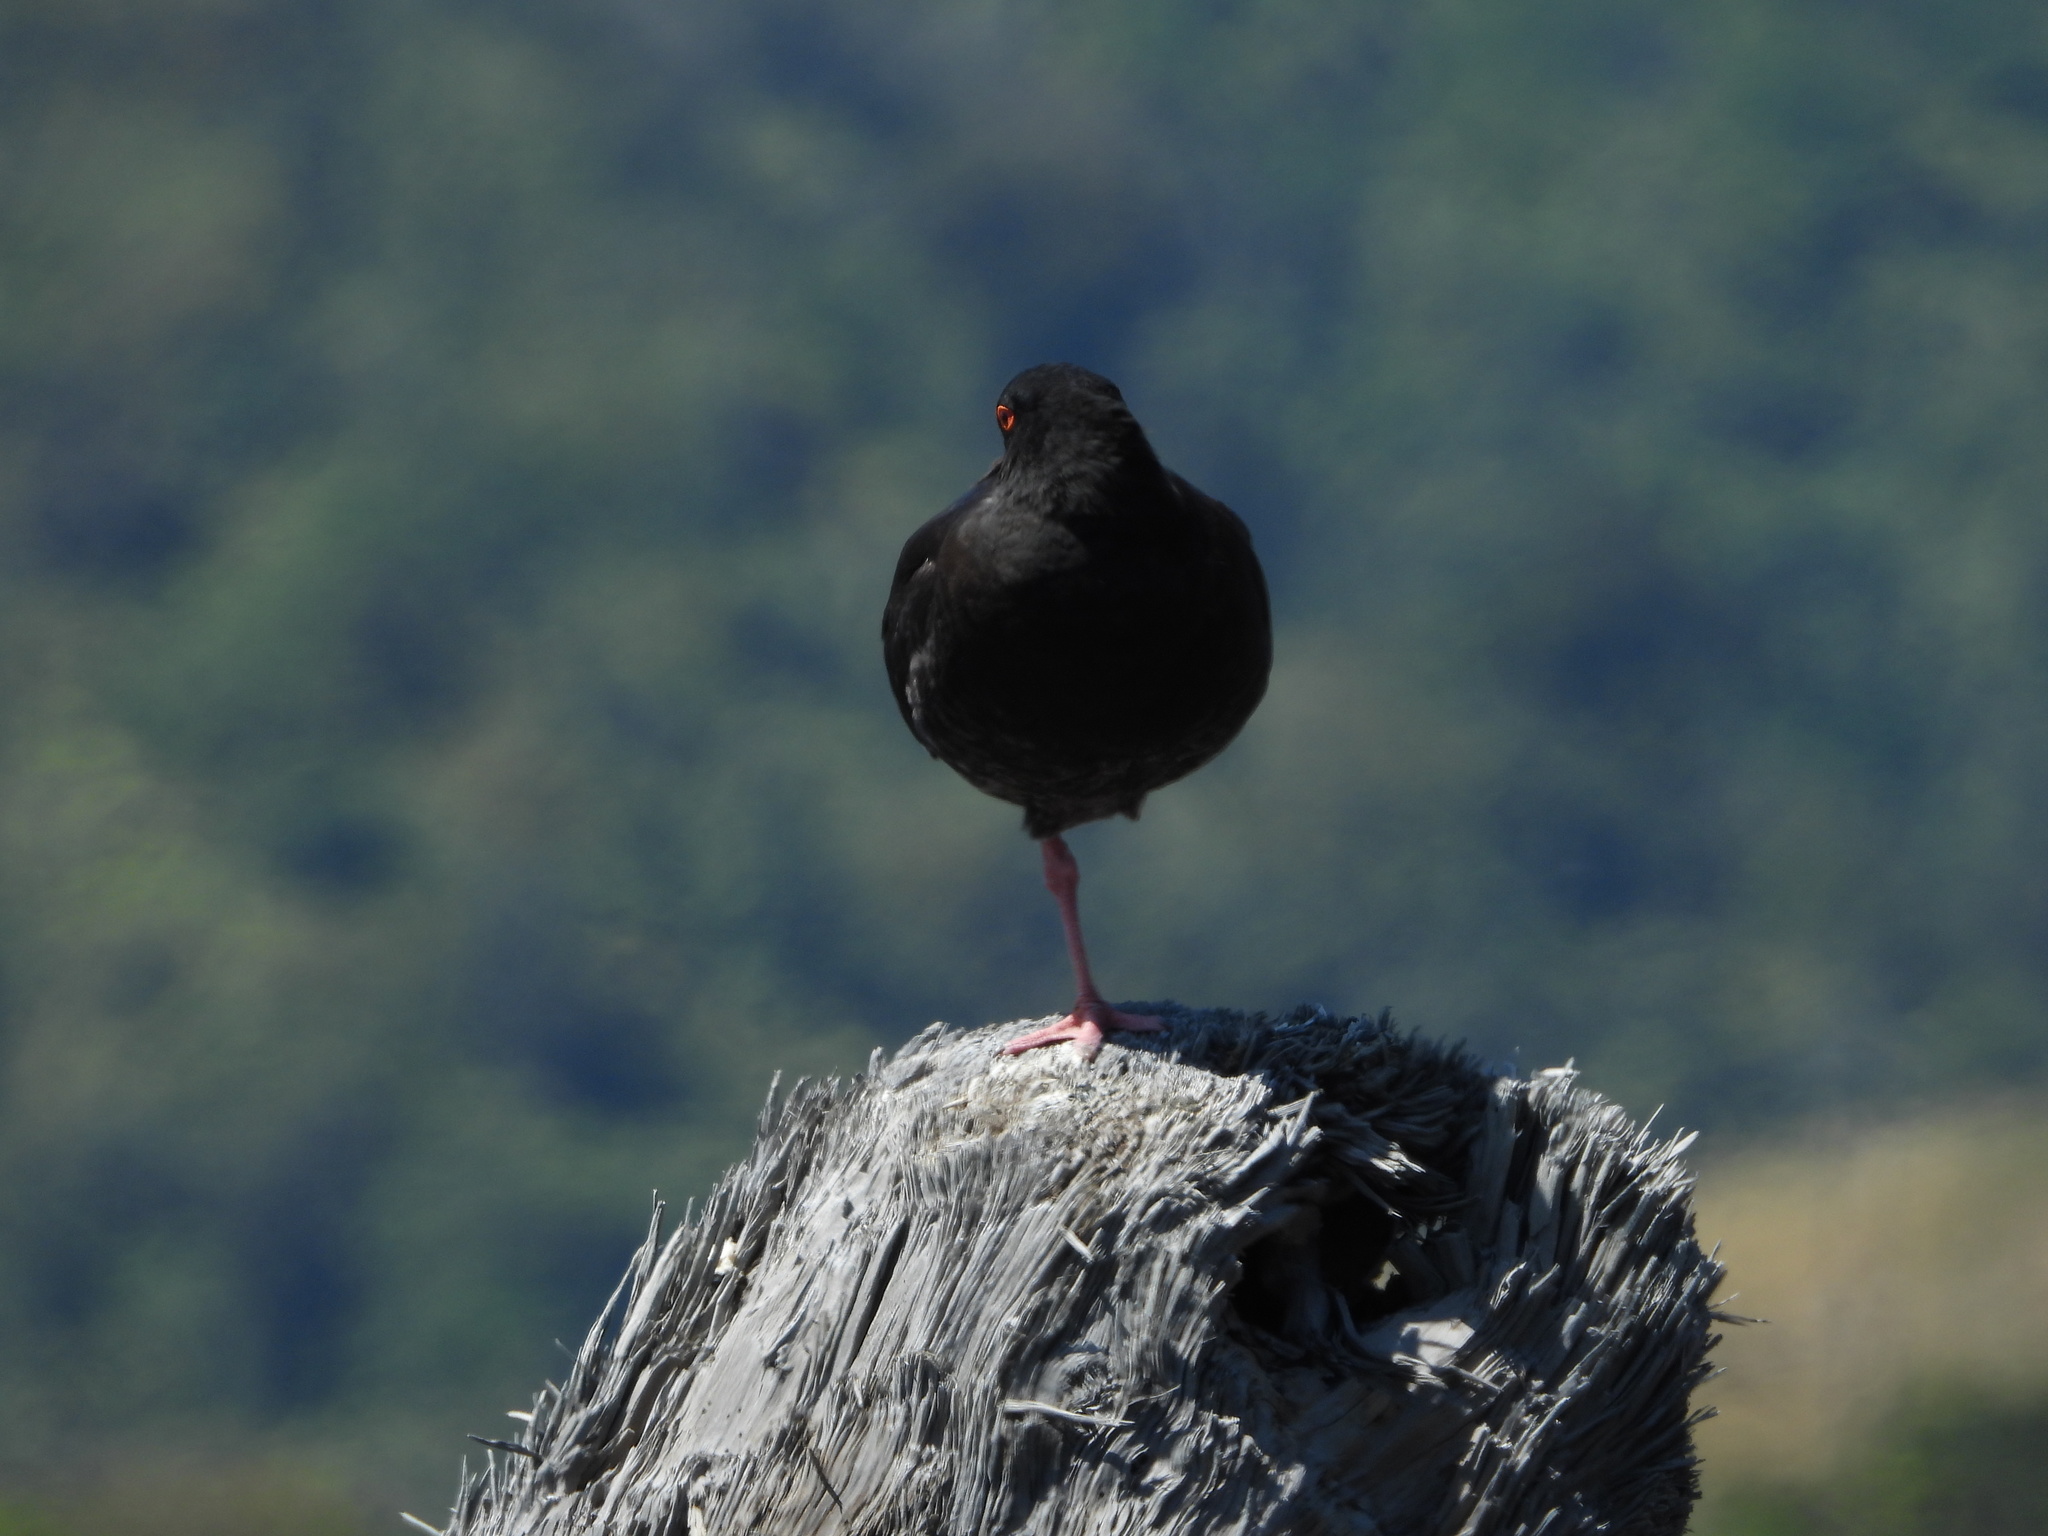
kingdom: Animalia
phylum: Chordata
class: Aves
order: Charadriiformes
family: Haematopodidae
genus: Haematopus
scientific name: Haematopus unicolor
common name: Variable oystercatcher
